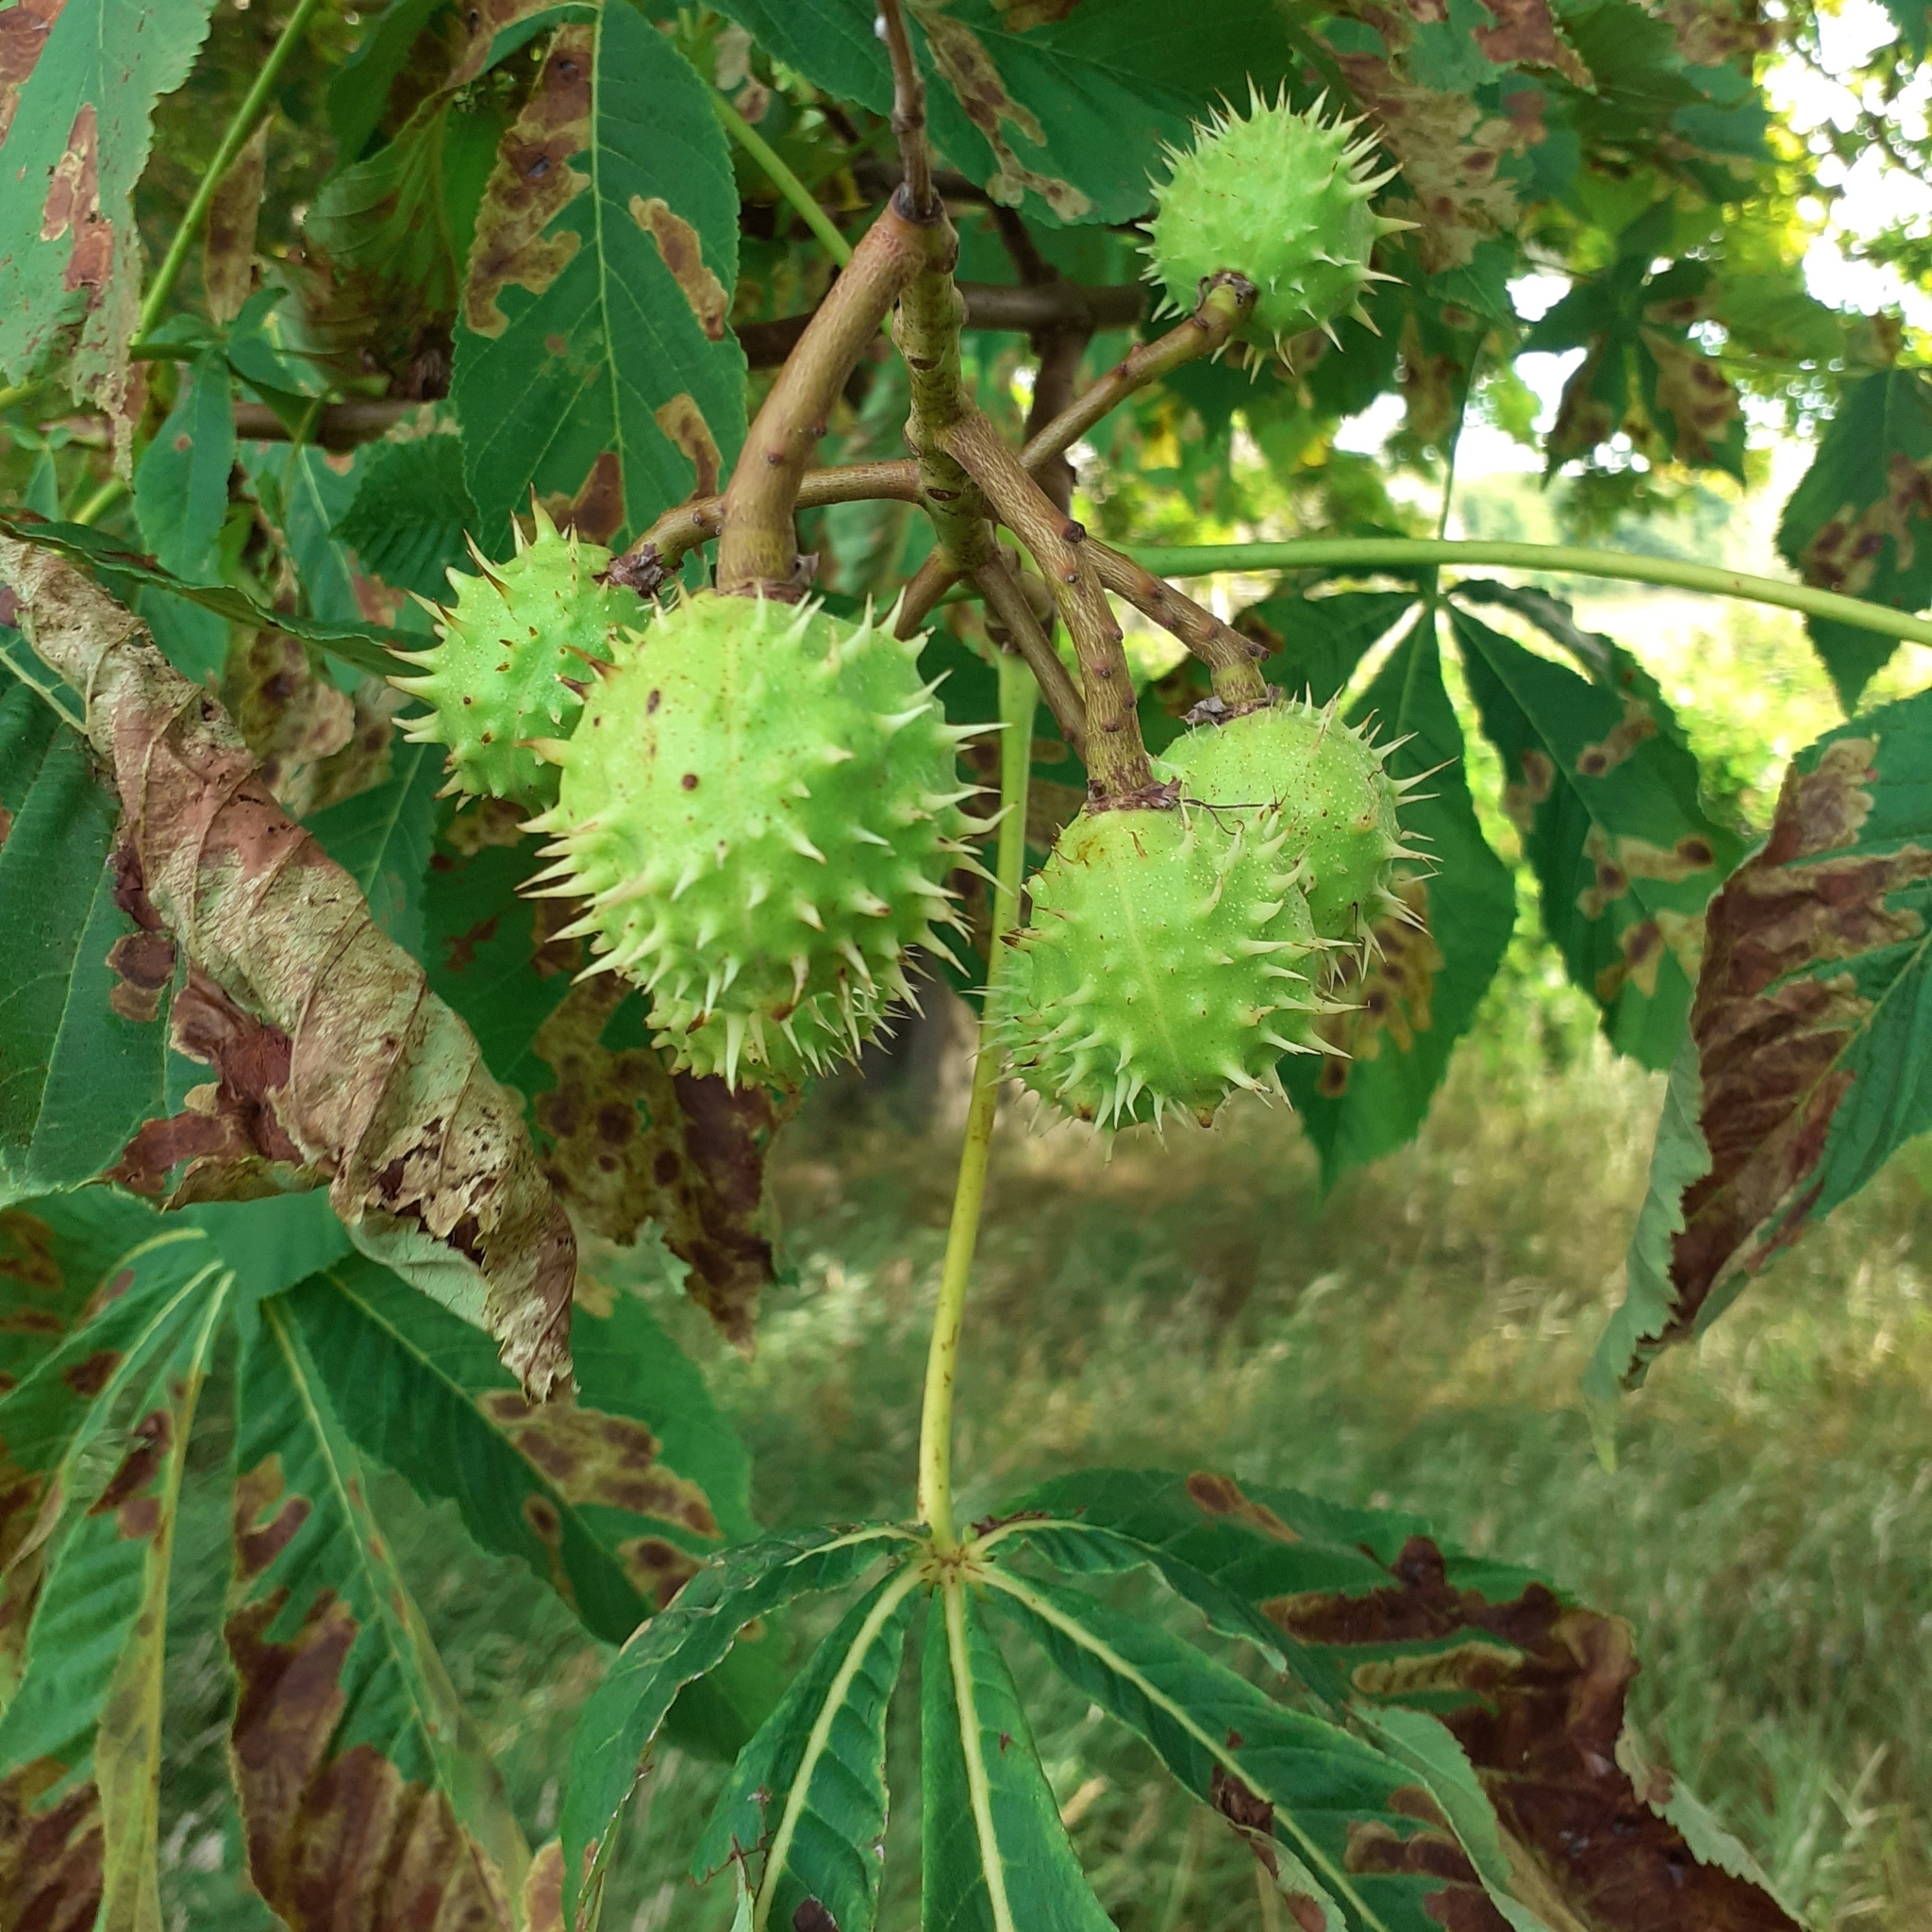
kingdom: Plantae
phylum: Tracheophyta
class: Magnoliopsida
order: Sapindales
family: Sapindaceae
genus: Aesculus
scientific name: Aesculus hippocastanum
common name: Horse-chestnut
